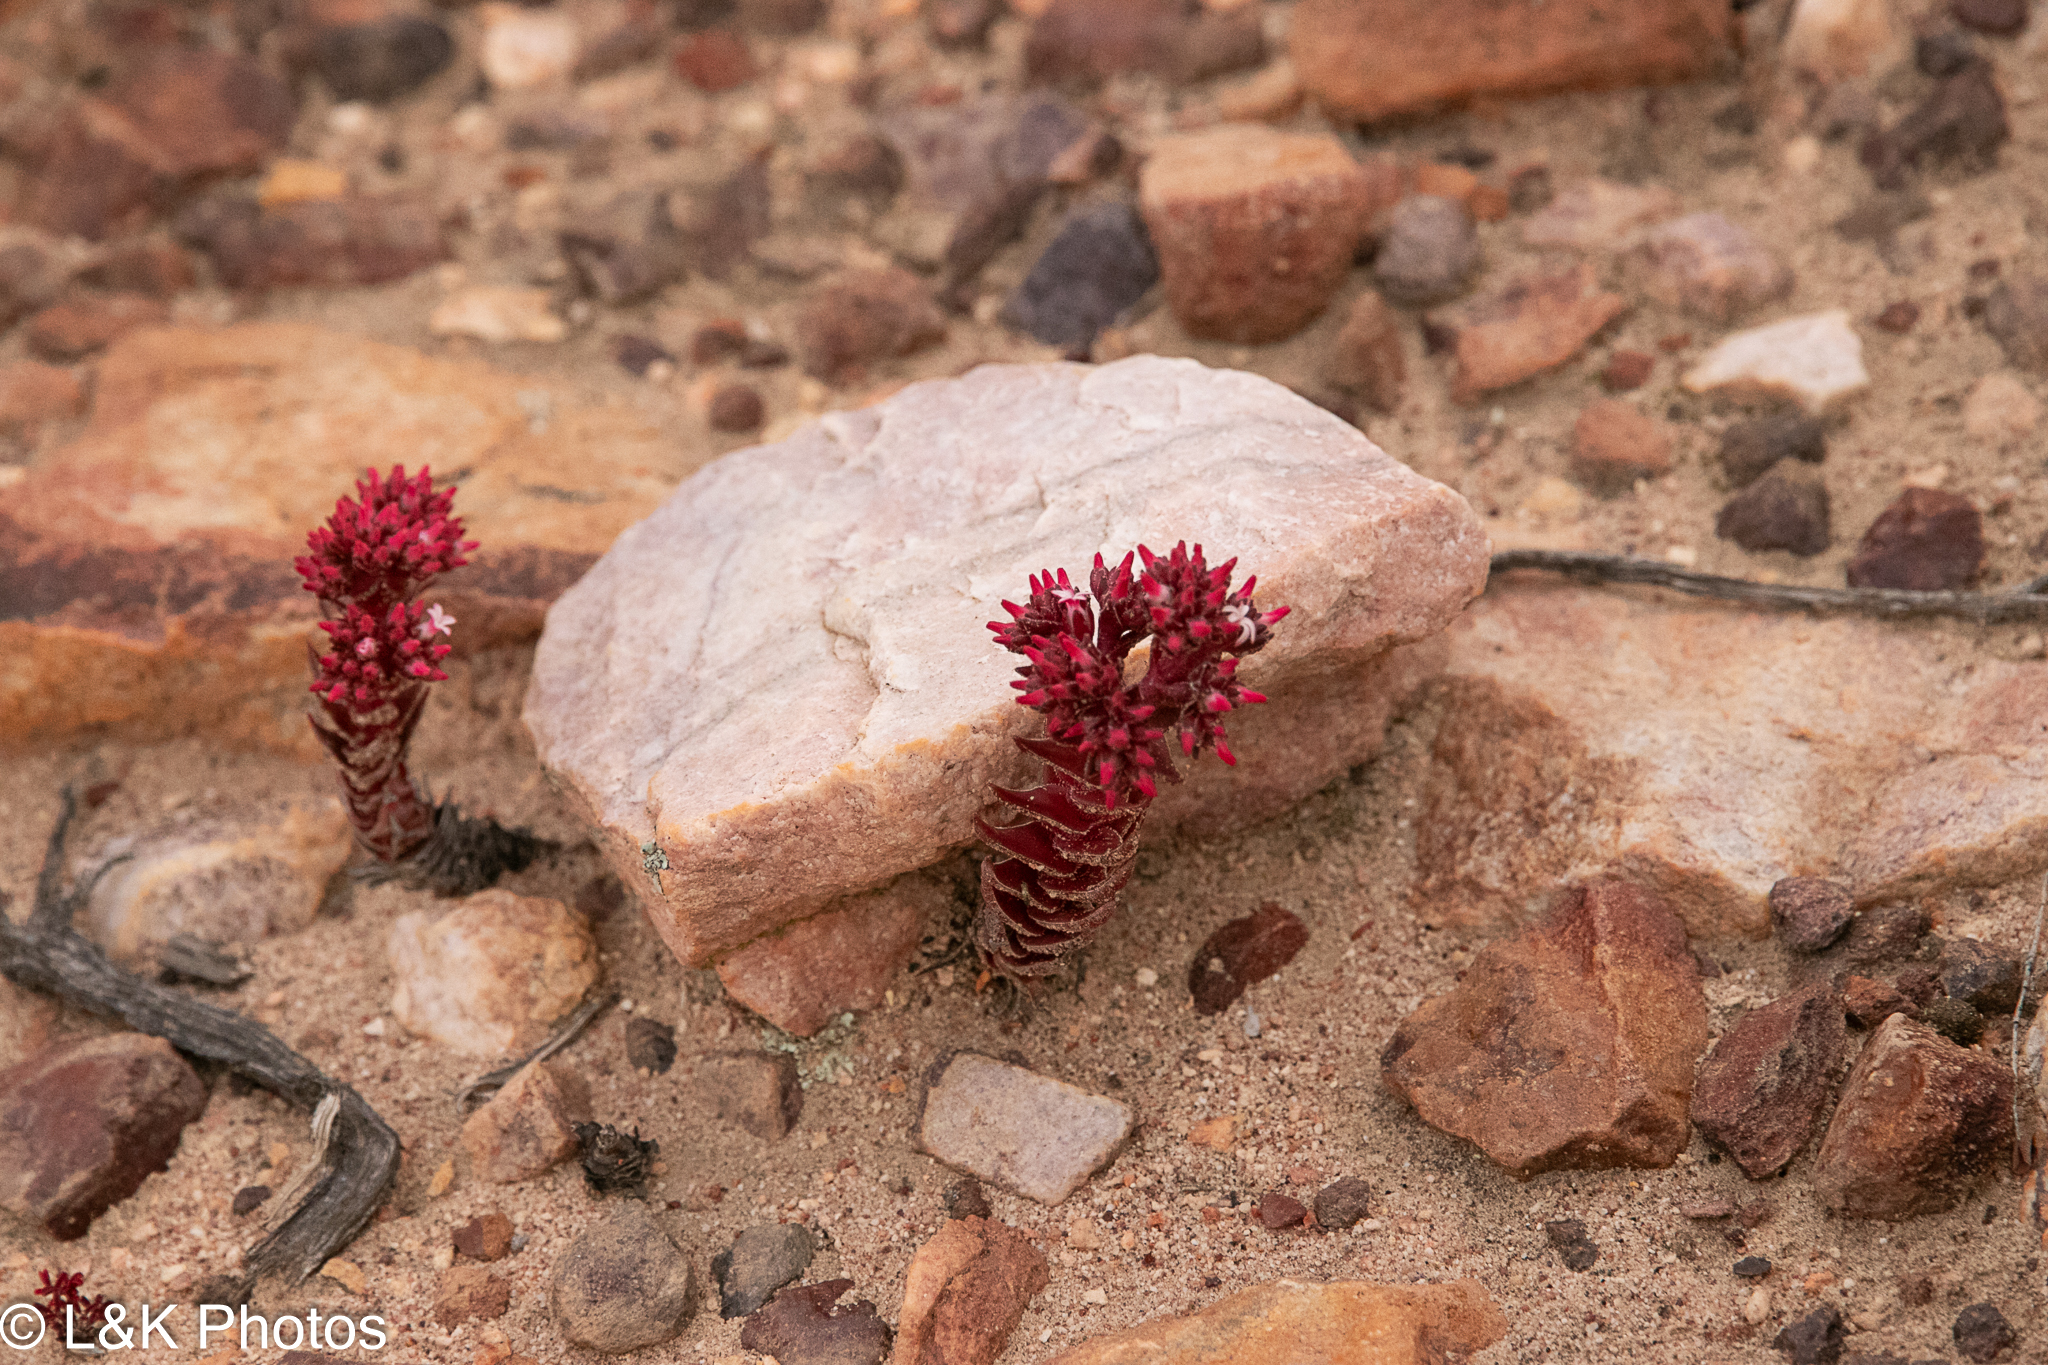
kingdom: Plantae
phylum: Tracheophyta
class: Magnoliopsida
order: Saxifragales
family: Crassulaceae
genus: Crassula
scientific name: Crassula alpestris
